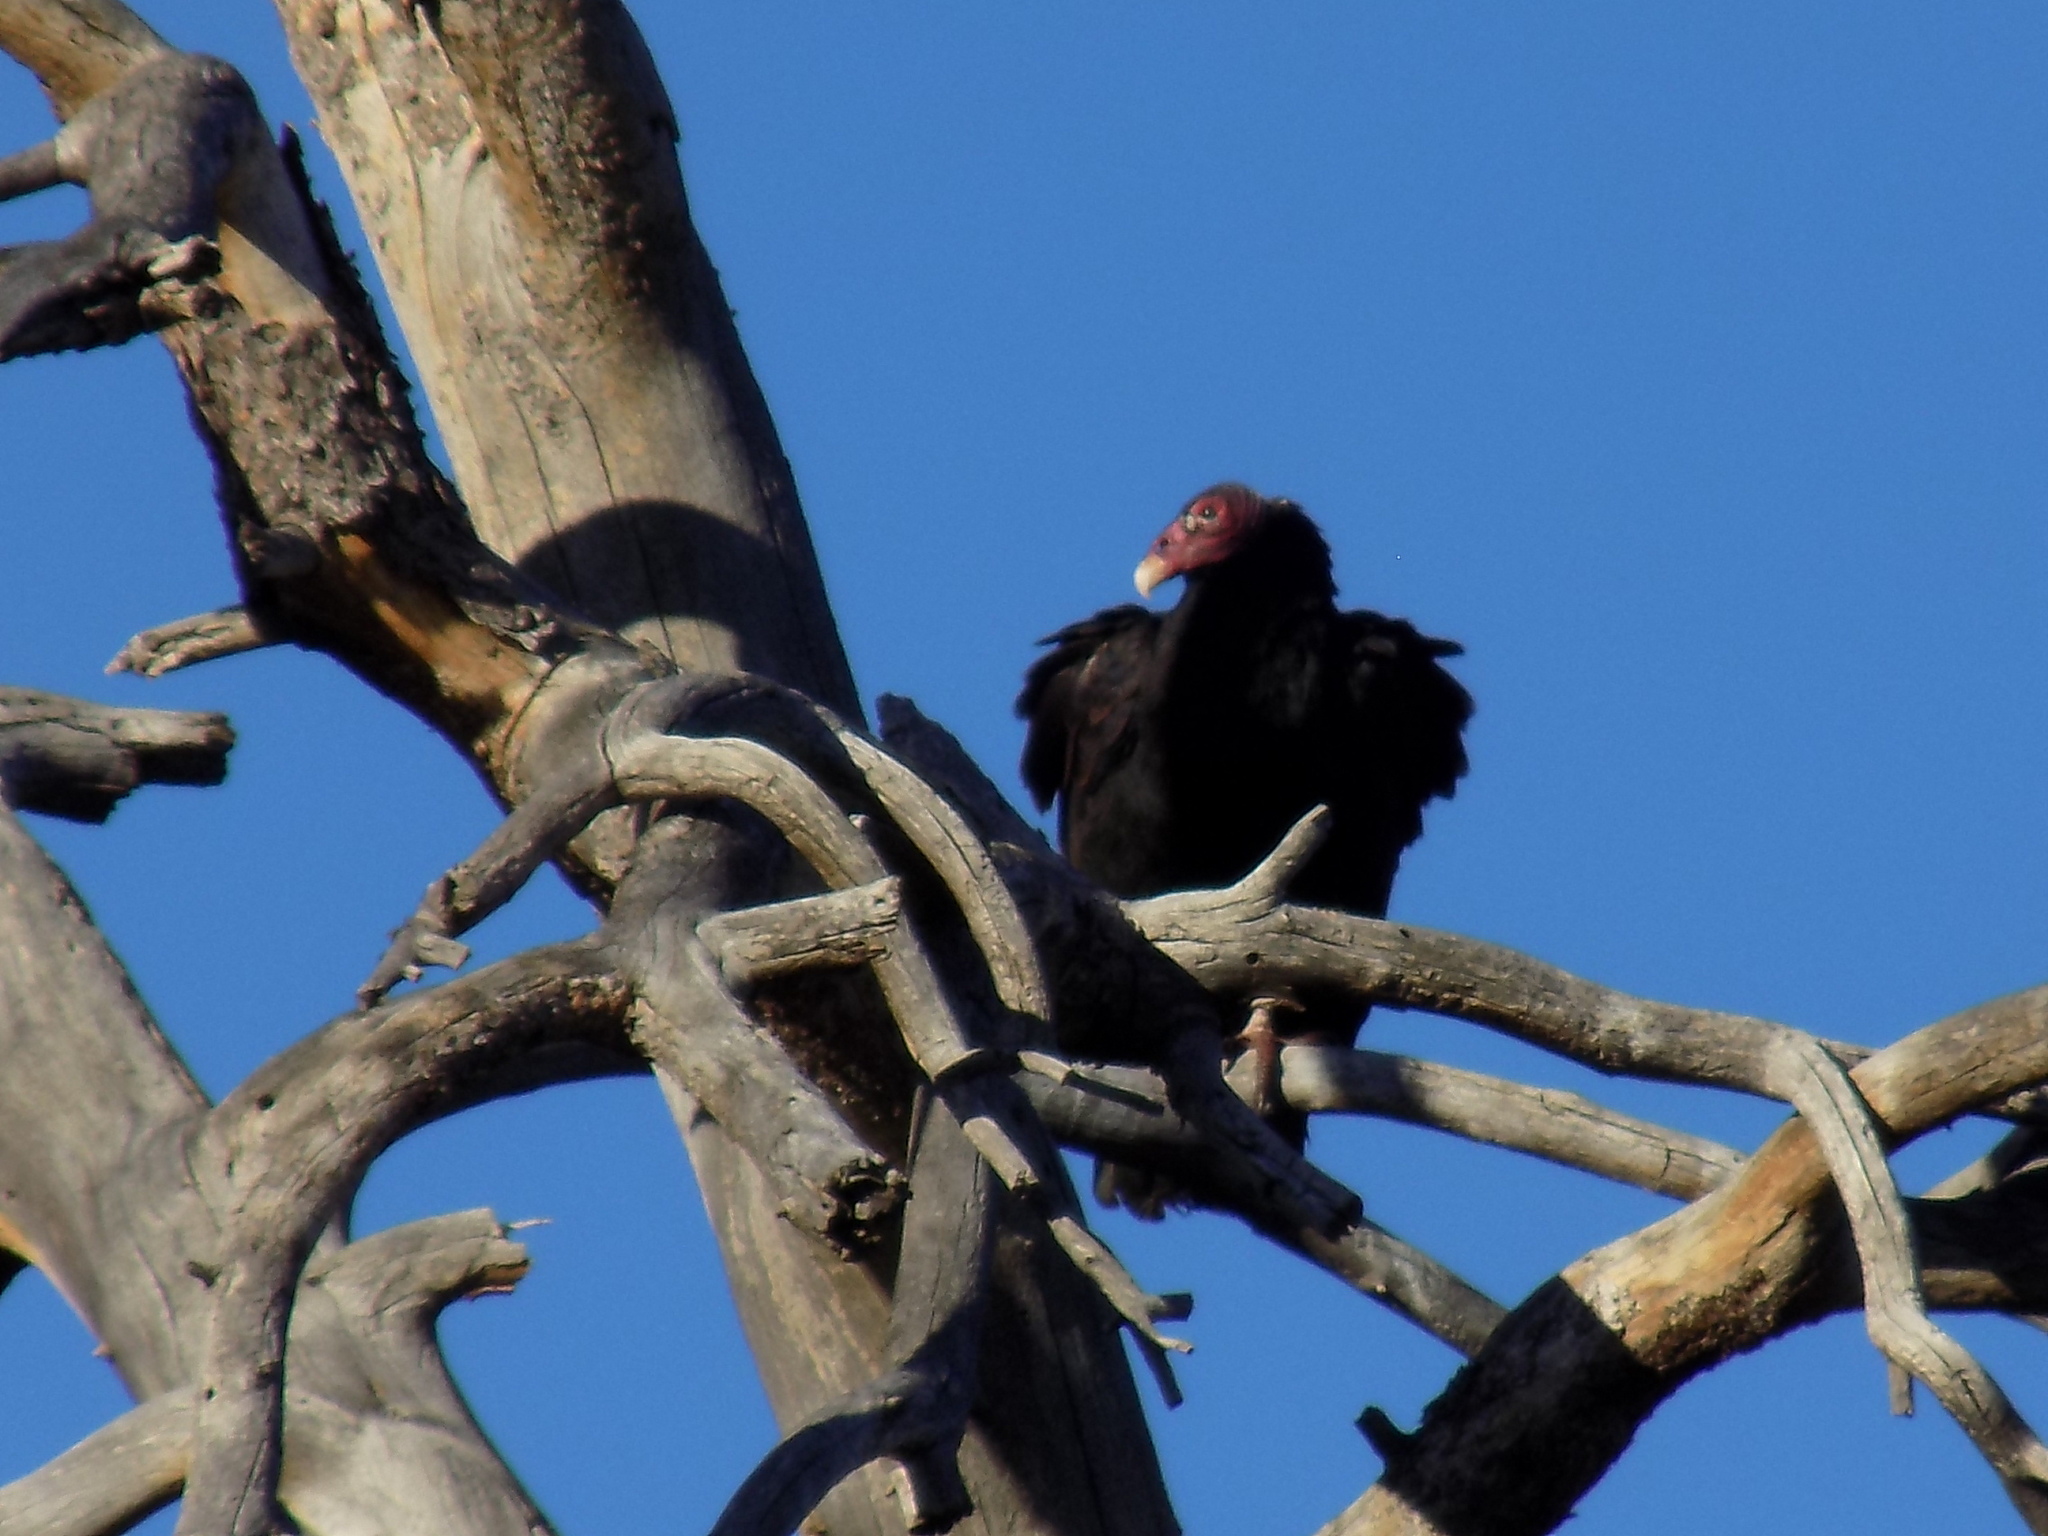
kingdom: Animalia
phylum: Chordata
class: Aves
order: Accipitriformes
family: Cathartidae
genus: Cathartes
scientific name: Cathartes aura
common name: Turkey vulture
